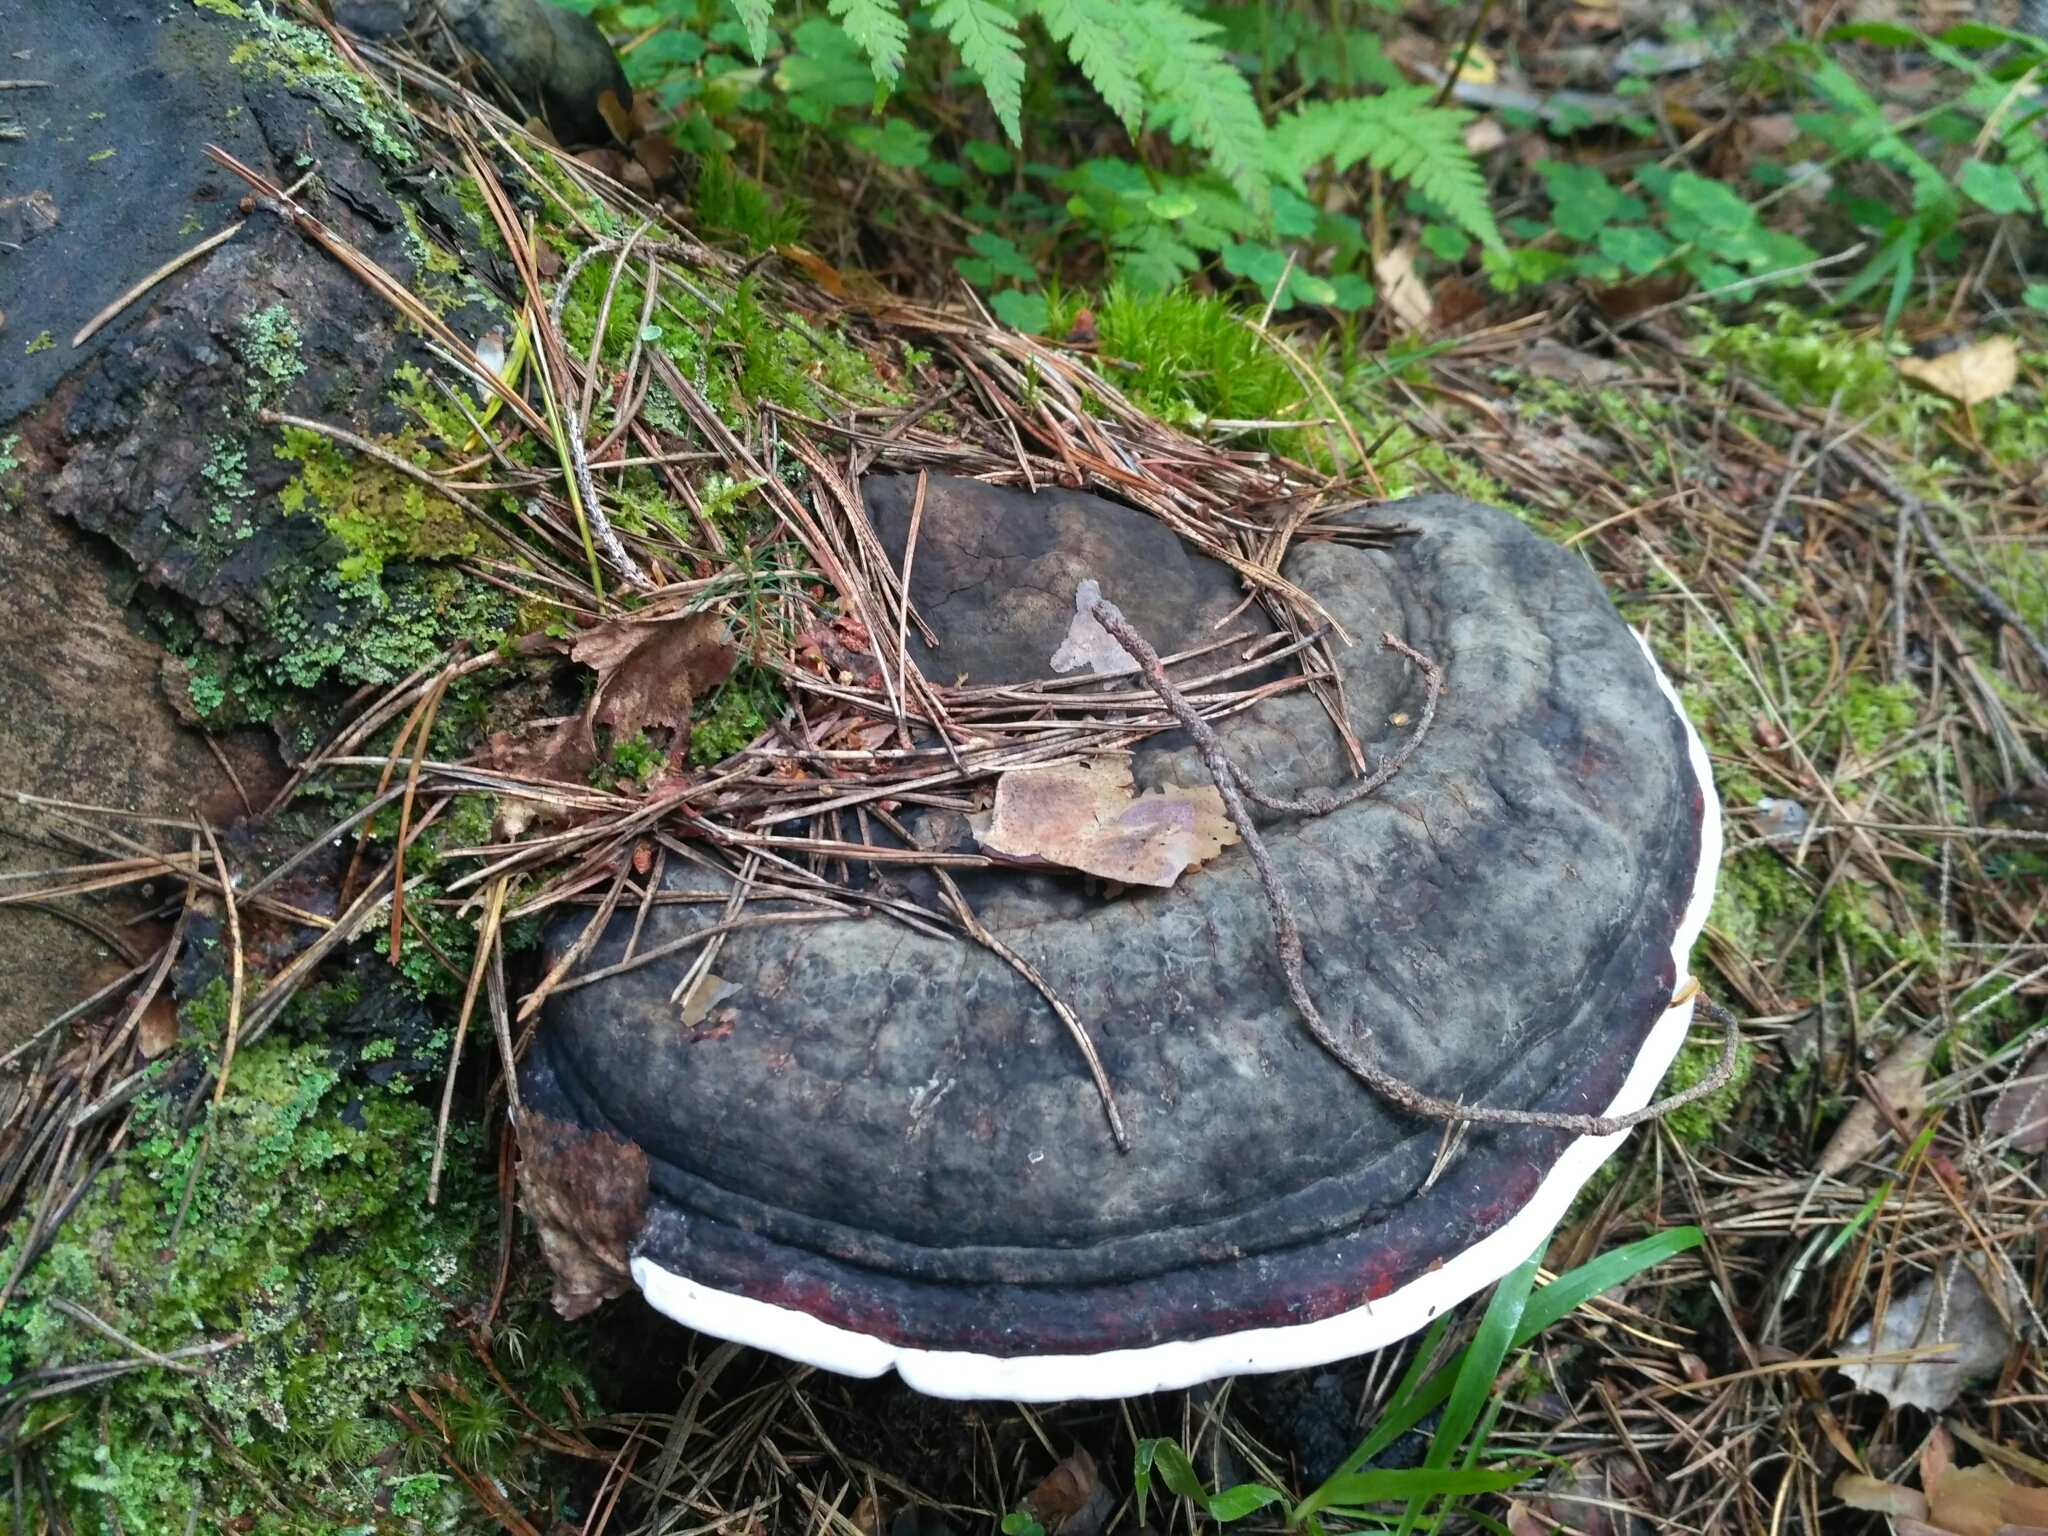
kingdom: Fungi
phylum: Basidiomycota
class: Agaricomycetes
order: Polyporales
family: Fomitopsidaceae
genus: Fomitopsis
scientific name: Fomitopsis pinicola
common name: Red-belted bracket
